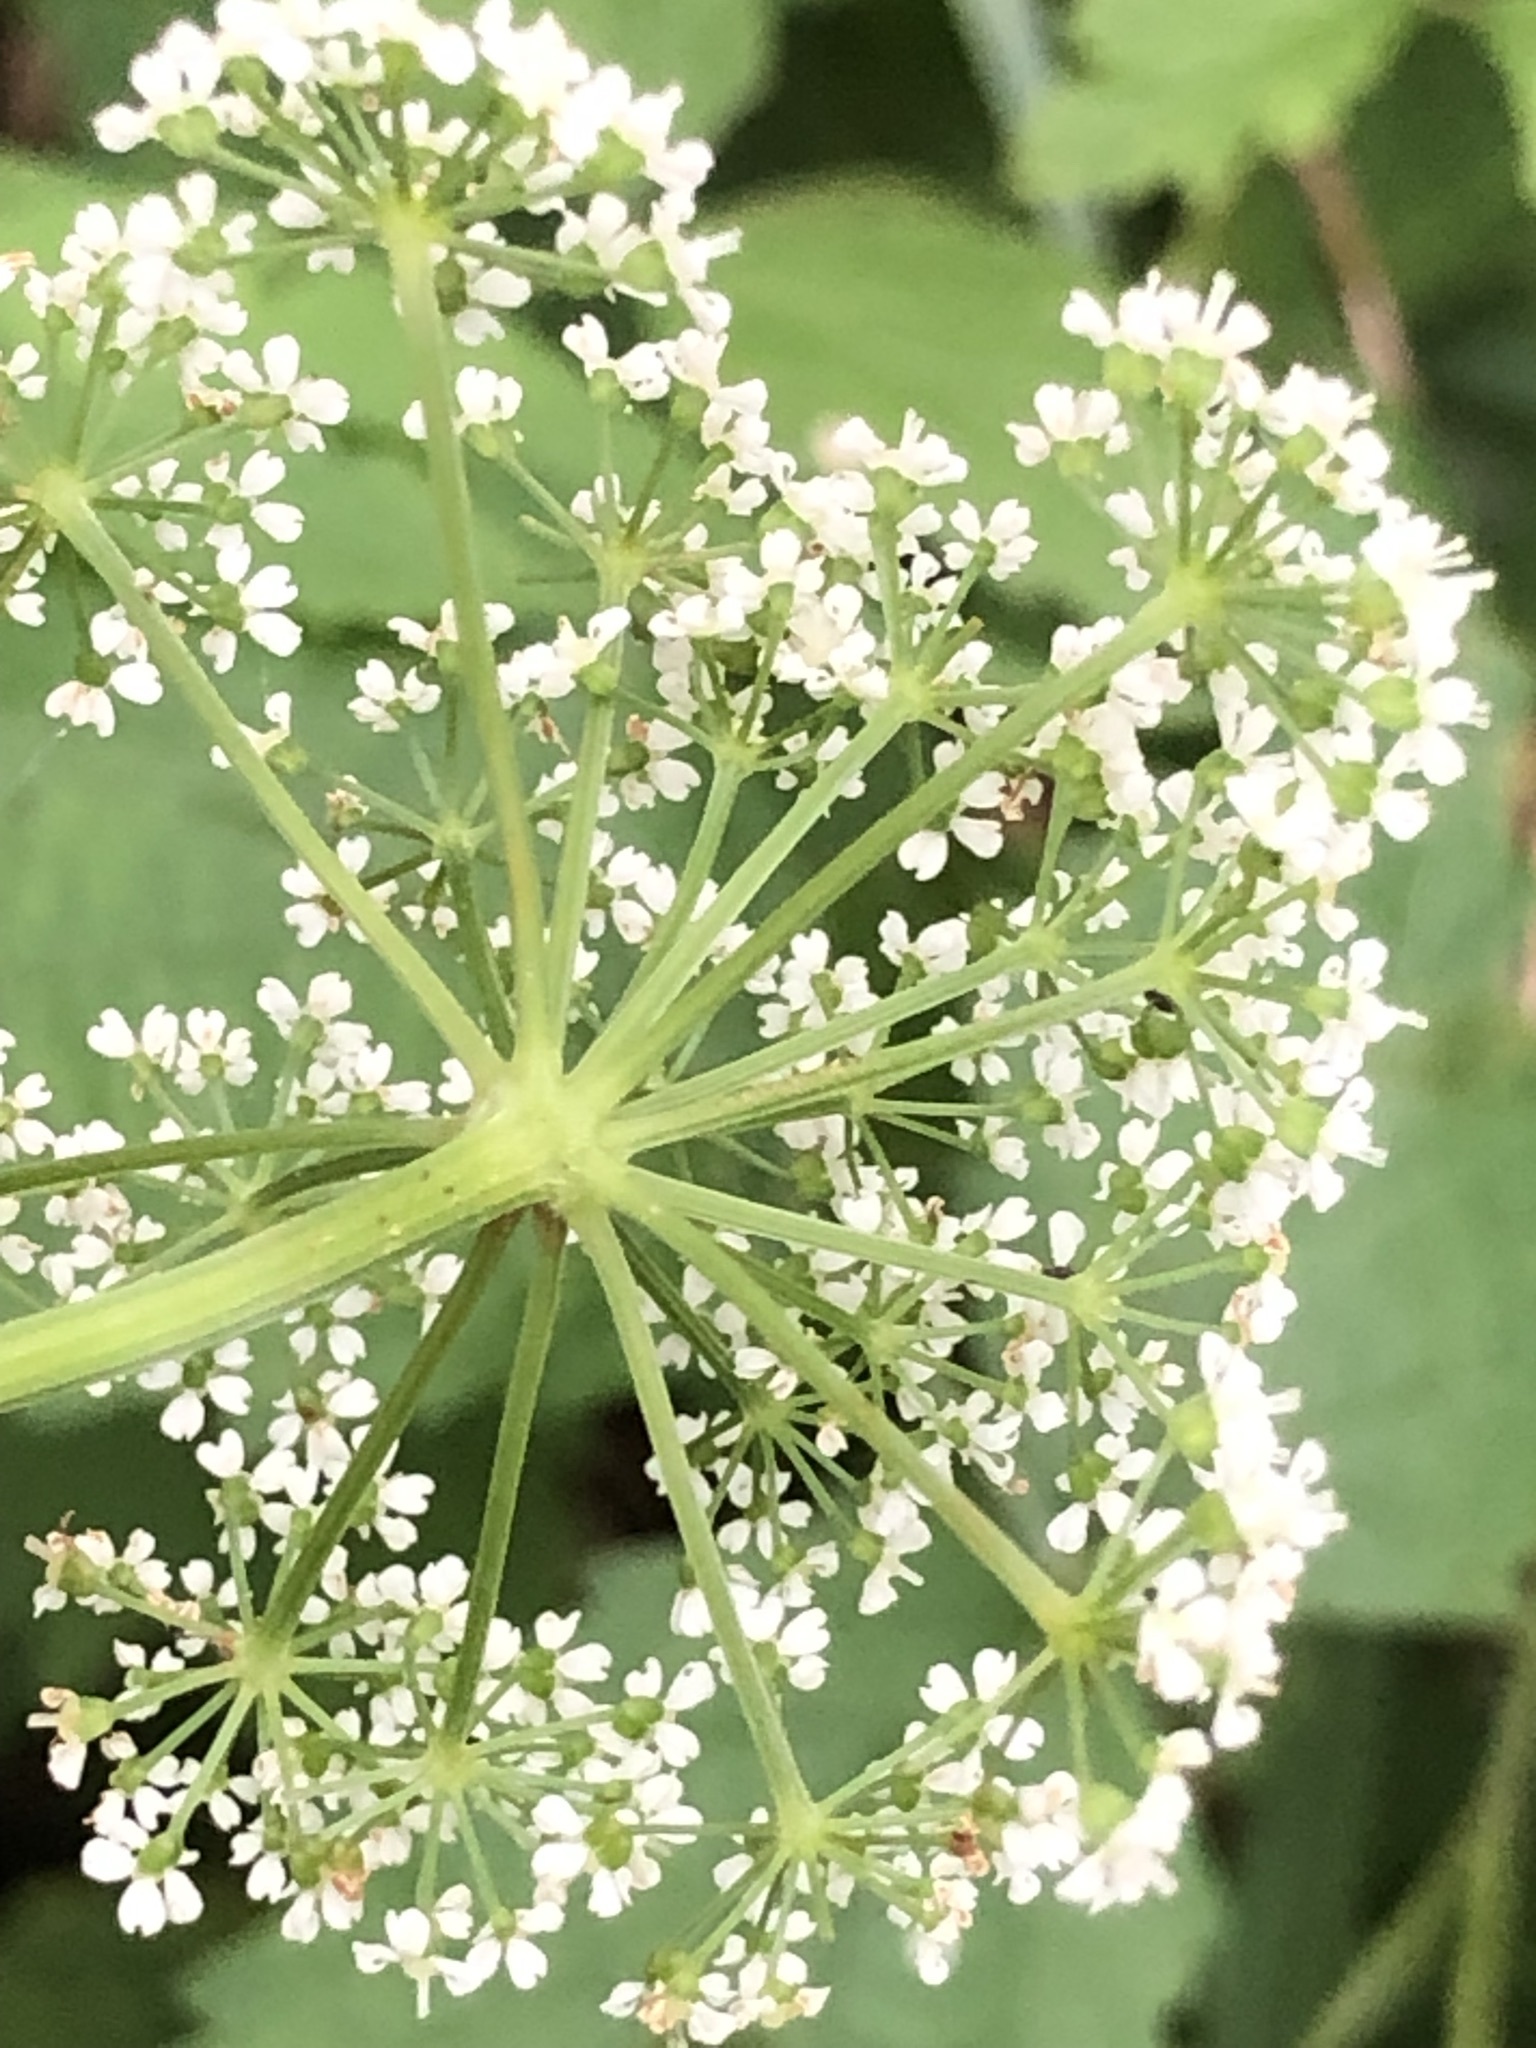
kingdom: Plantae
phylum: Tracheophyta
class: Magnoliopsida
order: Apiales
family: Apiaceae
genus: Aegopodium
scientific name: Aegopodium podagraria
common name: Ground-elder
